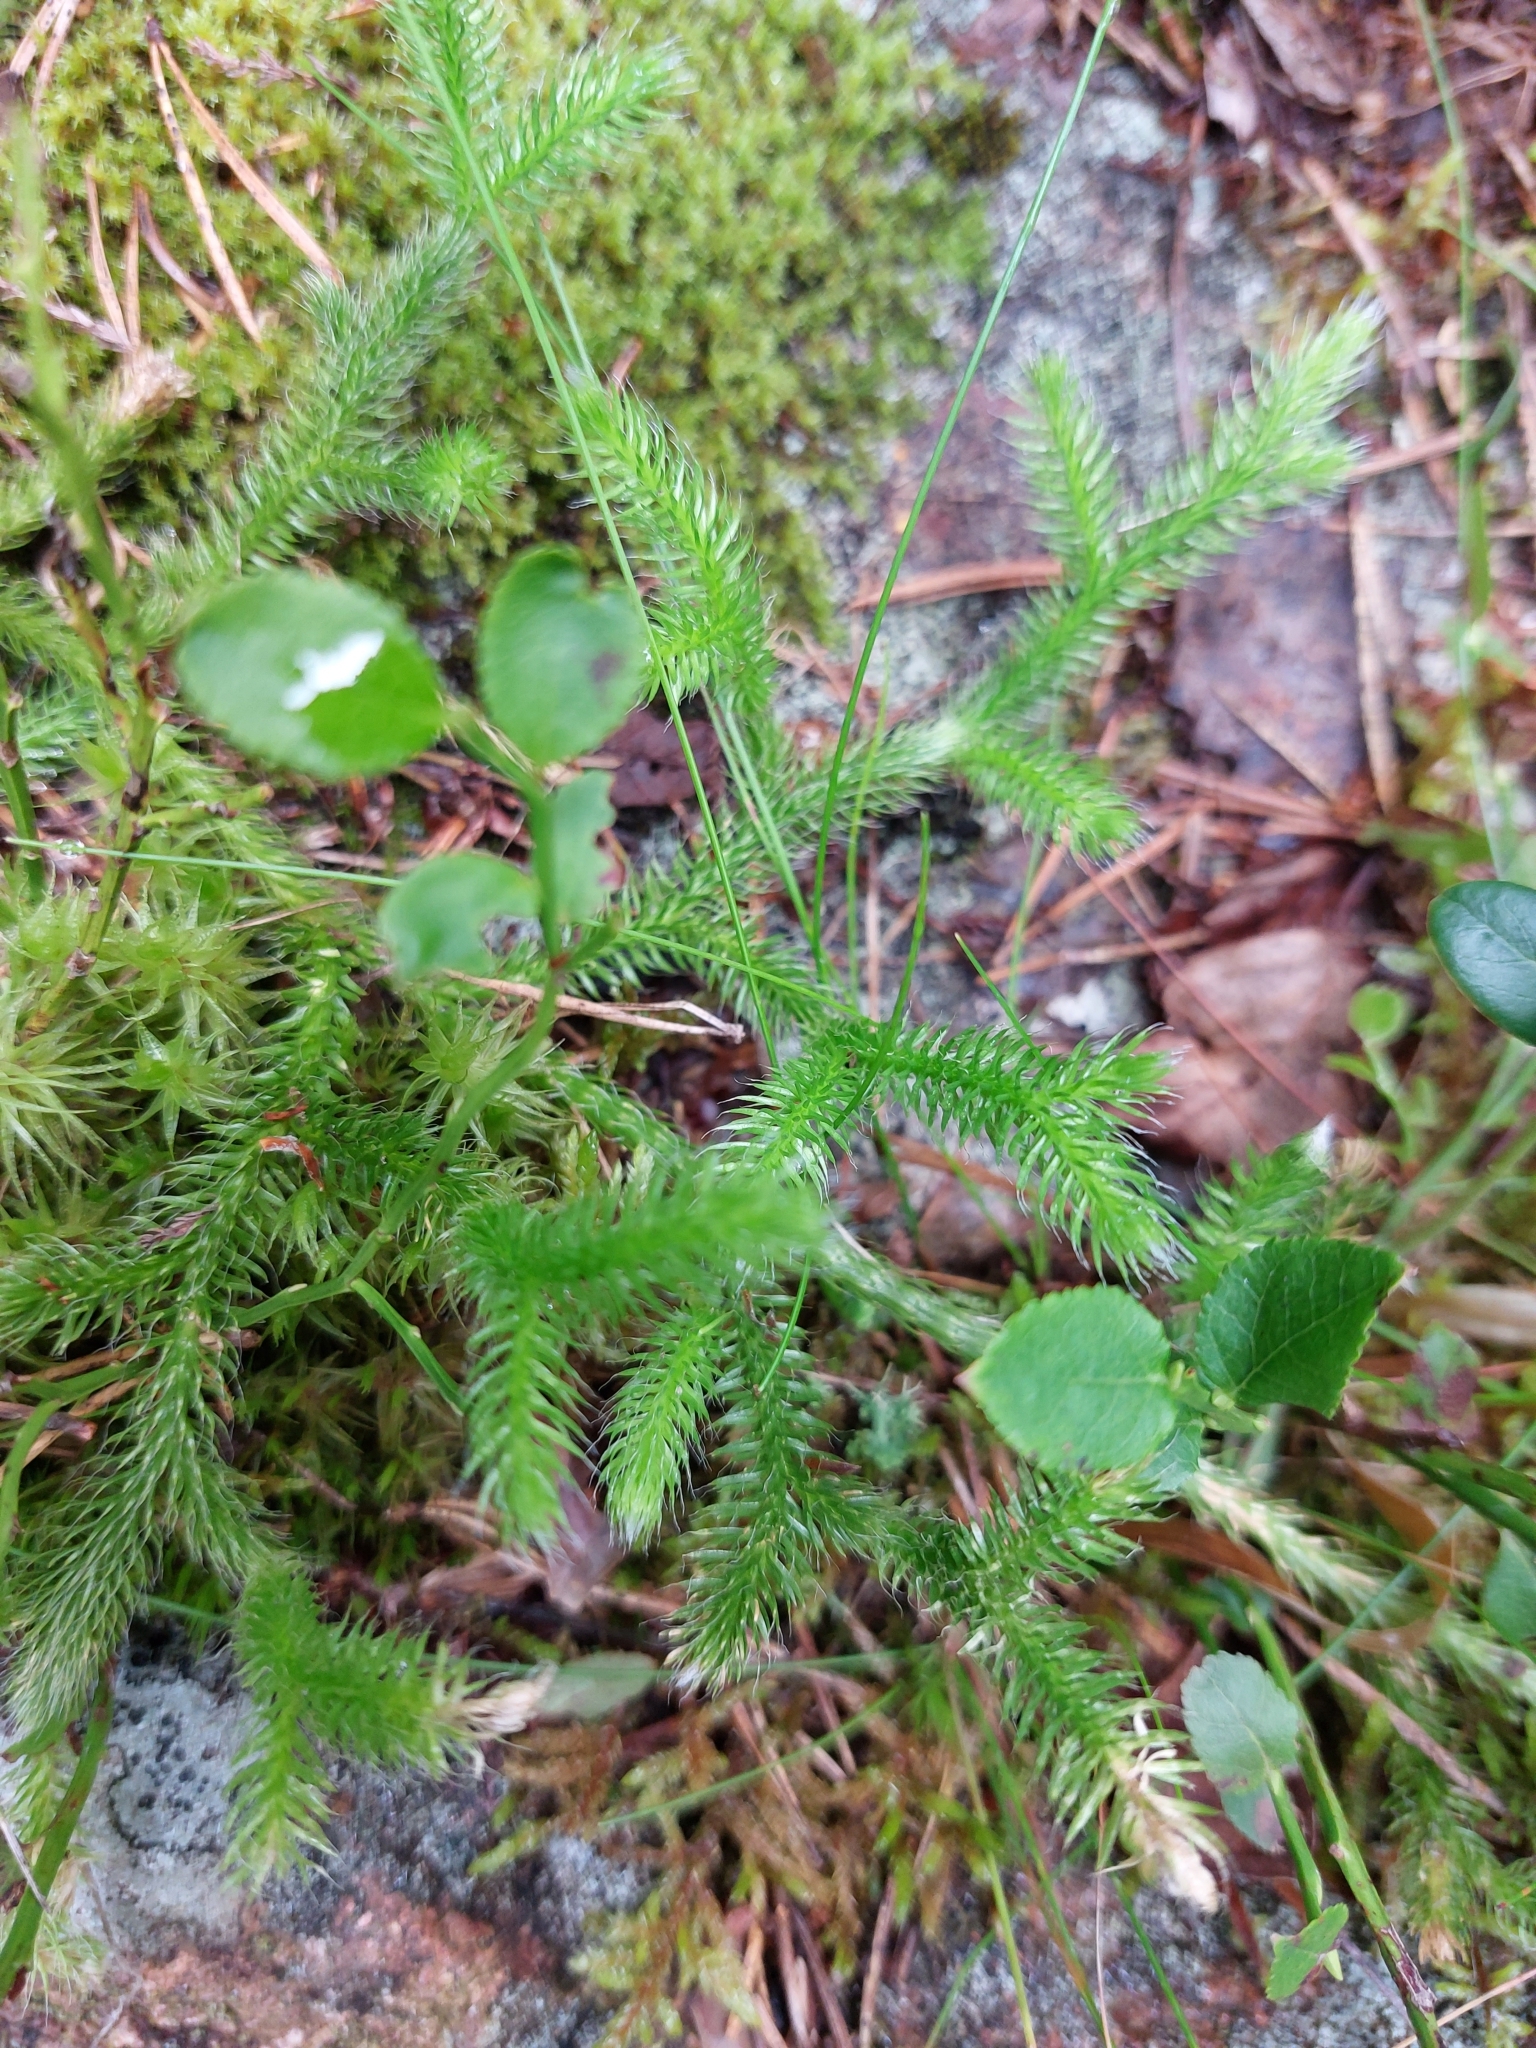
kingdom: Plantae
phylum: Tracheophyta
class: Lycopodiopsida
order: Lycopodiales
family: Lycopodiaceae
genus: Lycopodium
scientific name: Lycopodium clavatum
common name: Stag's-horn clubmoss
